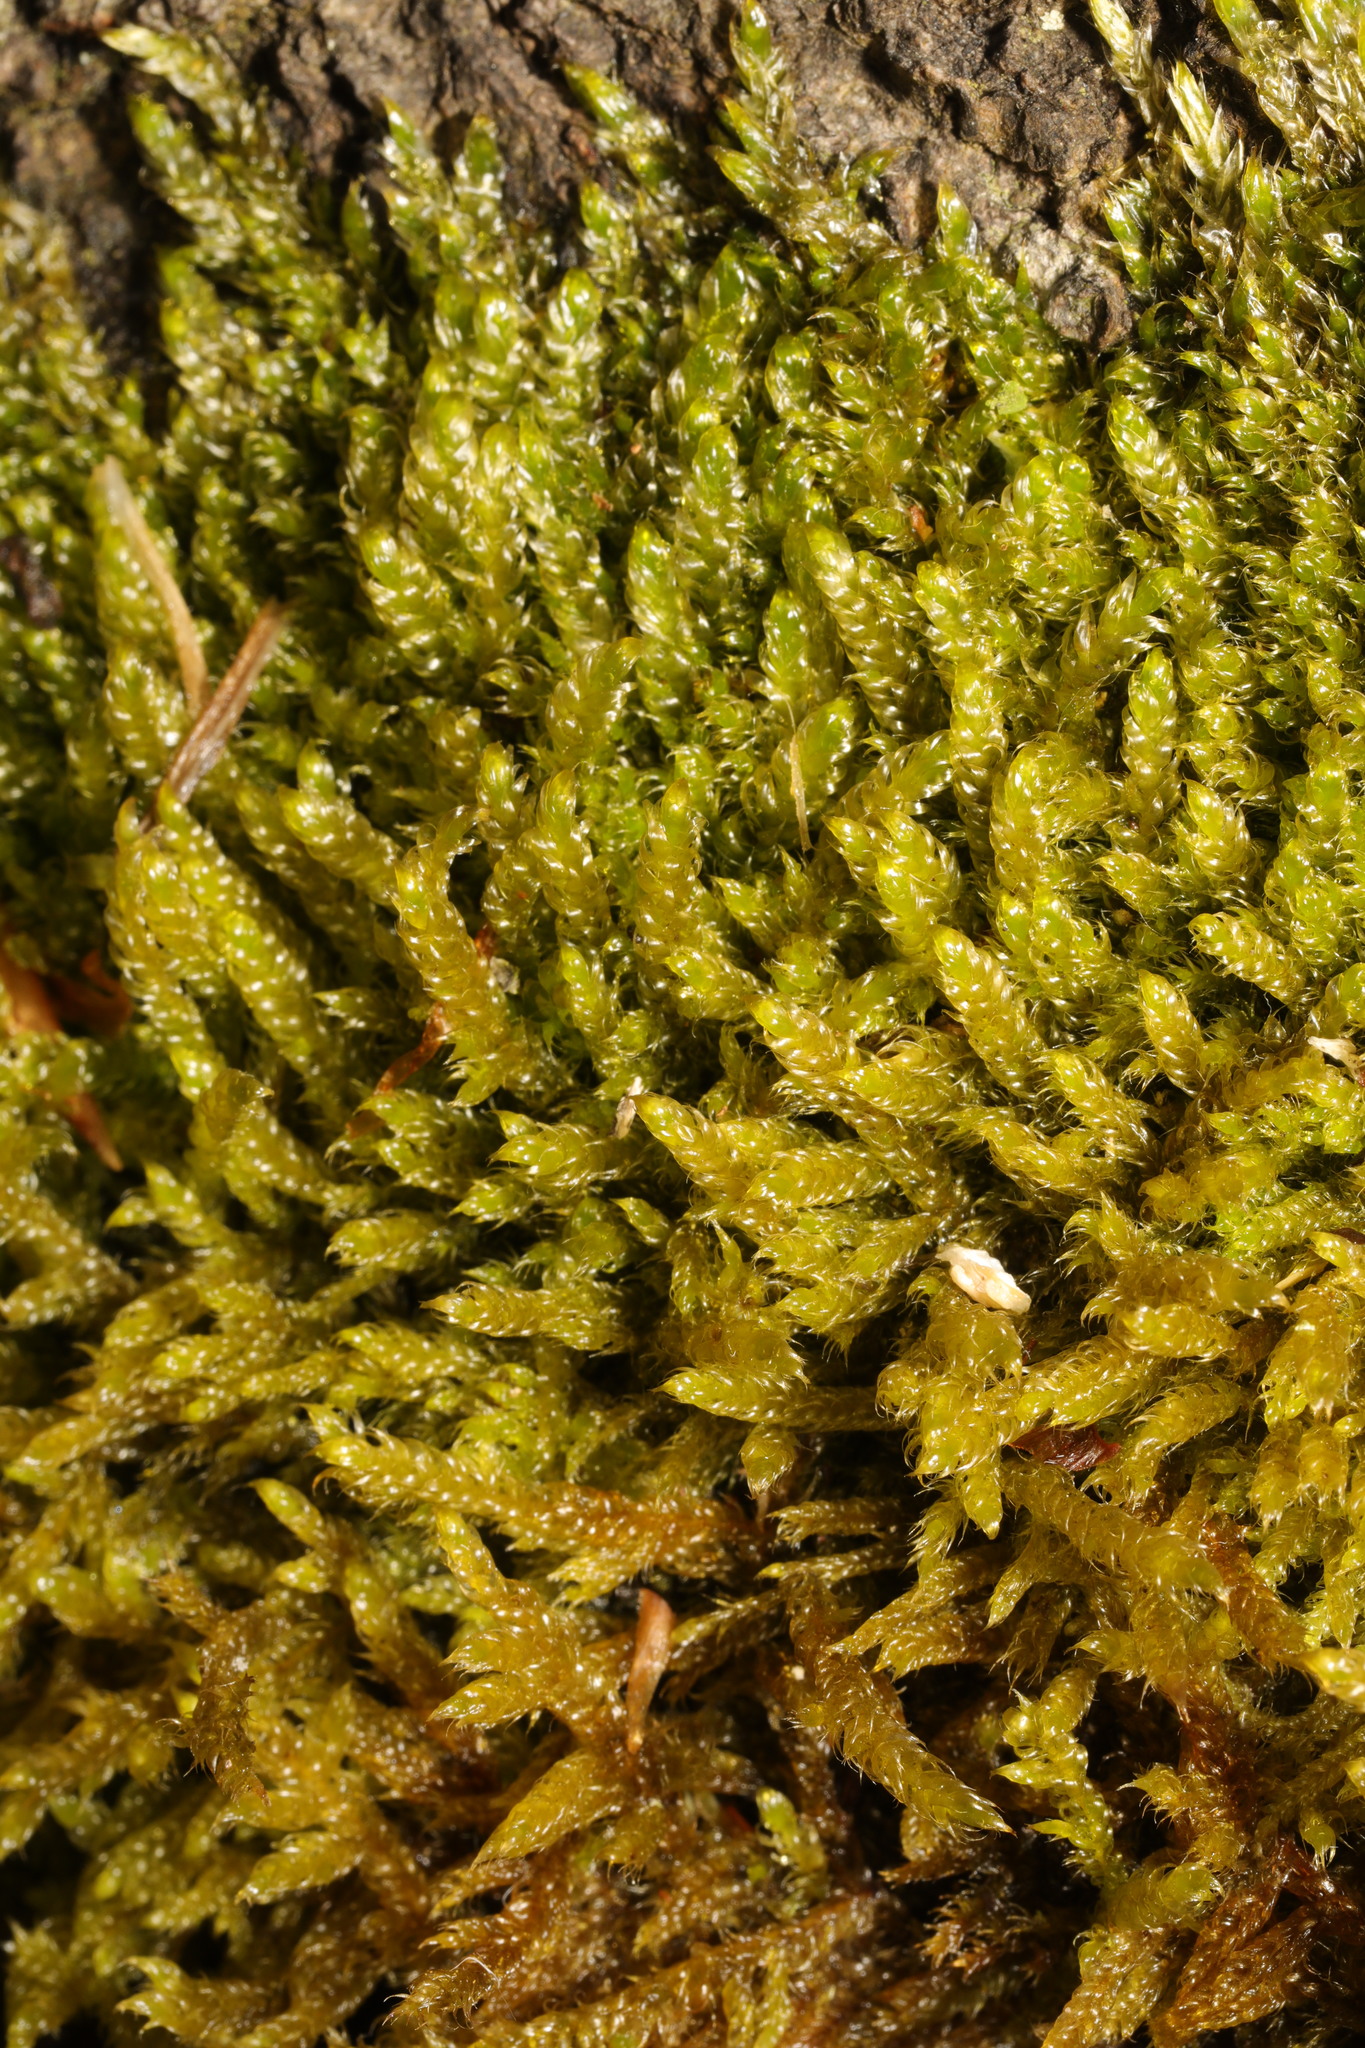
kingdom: Plantae
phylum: Bryophyta
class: Bryopsida
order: Hypnales
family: Hypnaceae
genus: Hypnum
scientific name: Hypnum cupressiforme
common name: Cypress-leaved plait-moss
